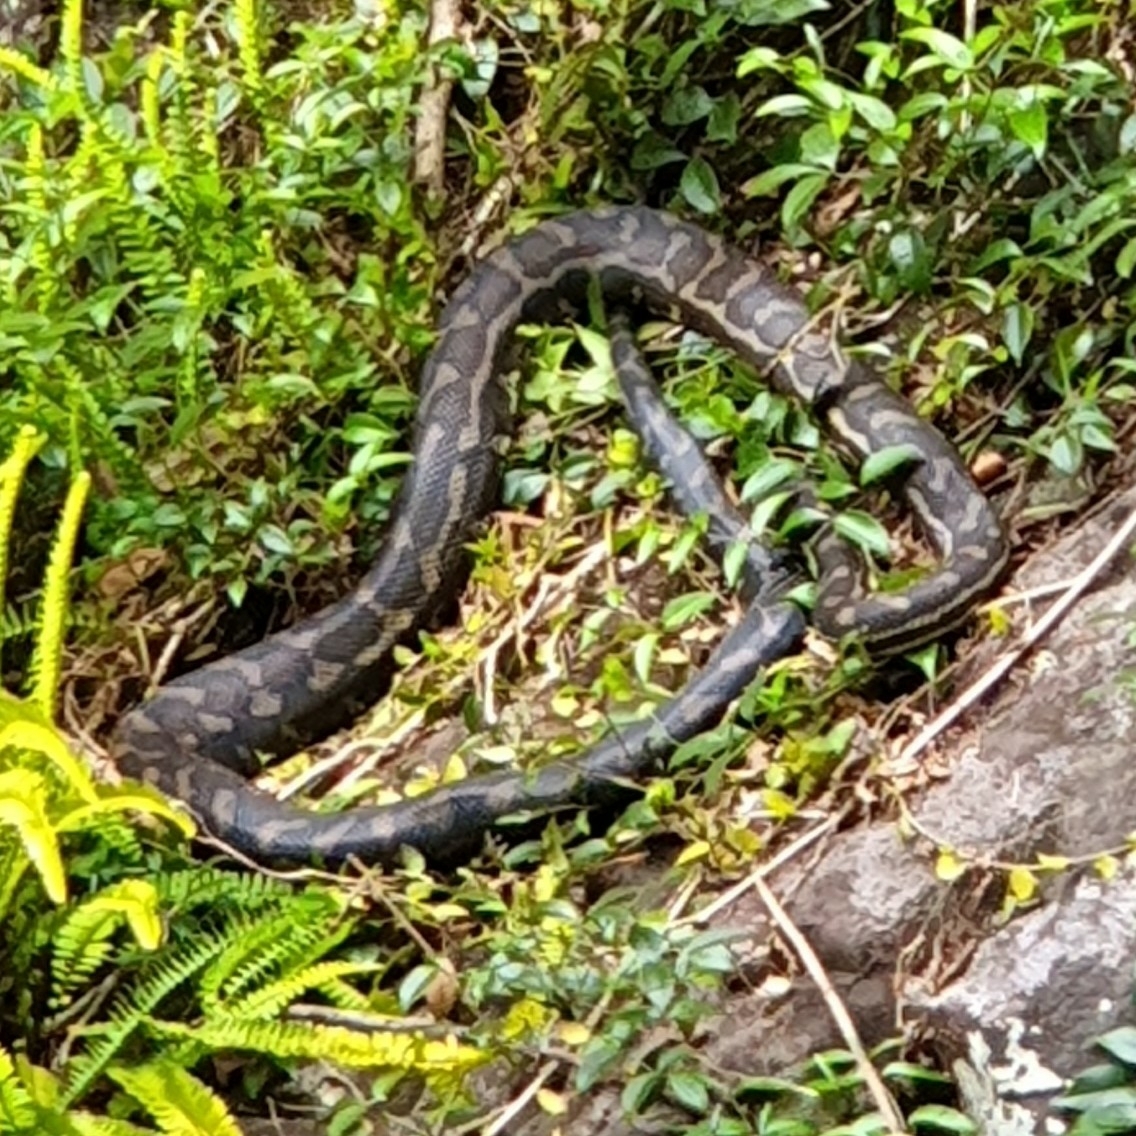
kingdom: Animalia
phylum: Chordata
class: Squamata
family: Pythonidae
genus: Morelia
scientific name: Morelia spilota
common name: Carpet python
